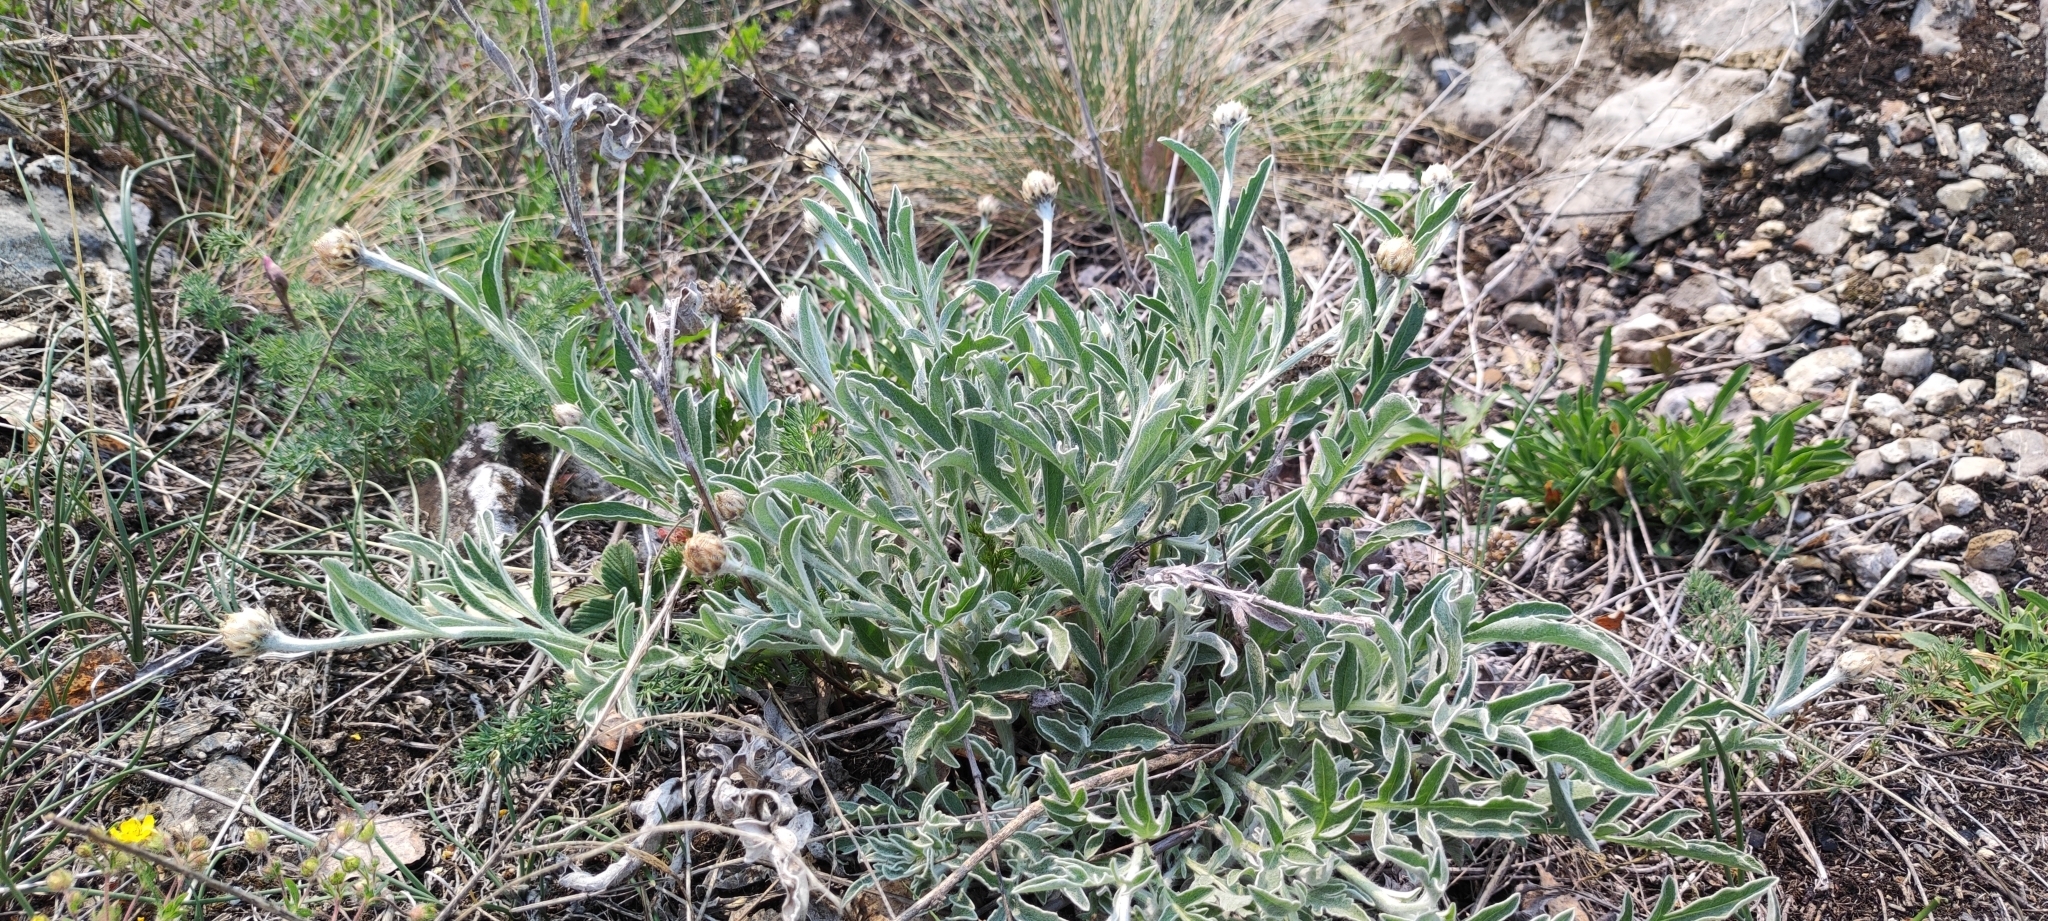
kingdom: Plantae
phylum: Tracheophyta
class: Magnoliopsida
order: Asterales
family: Asteraceae
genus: Psephellus
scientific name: Psephellus sibiricus
